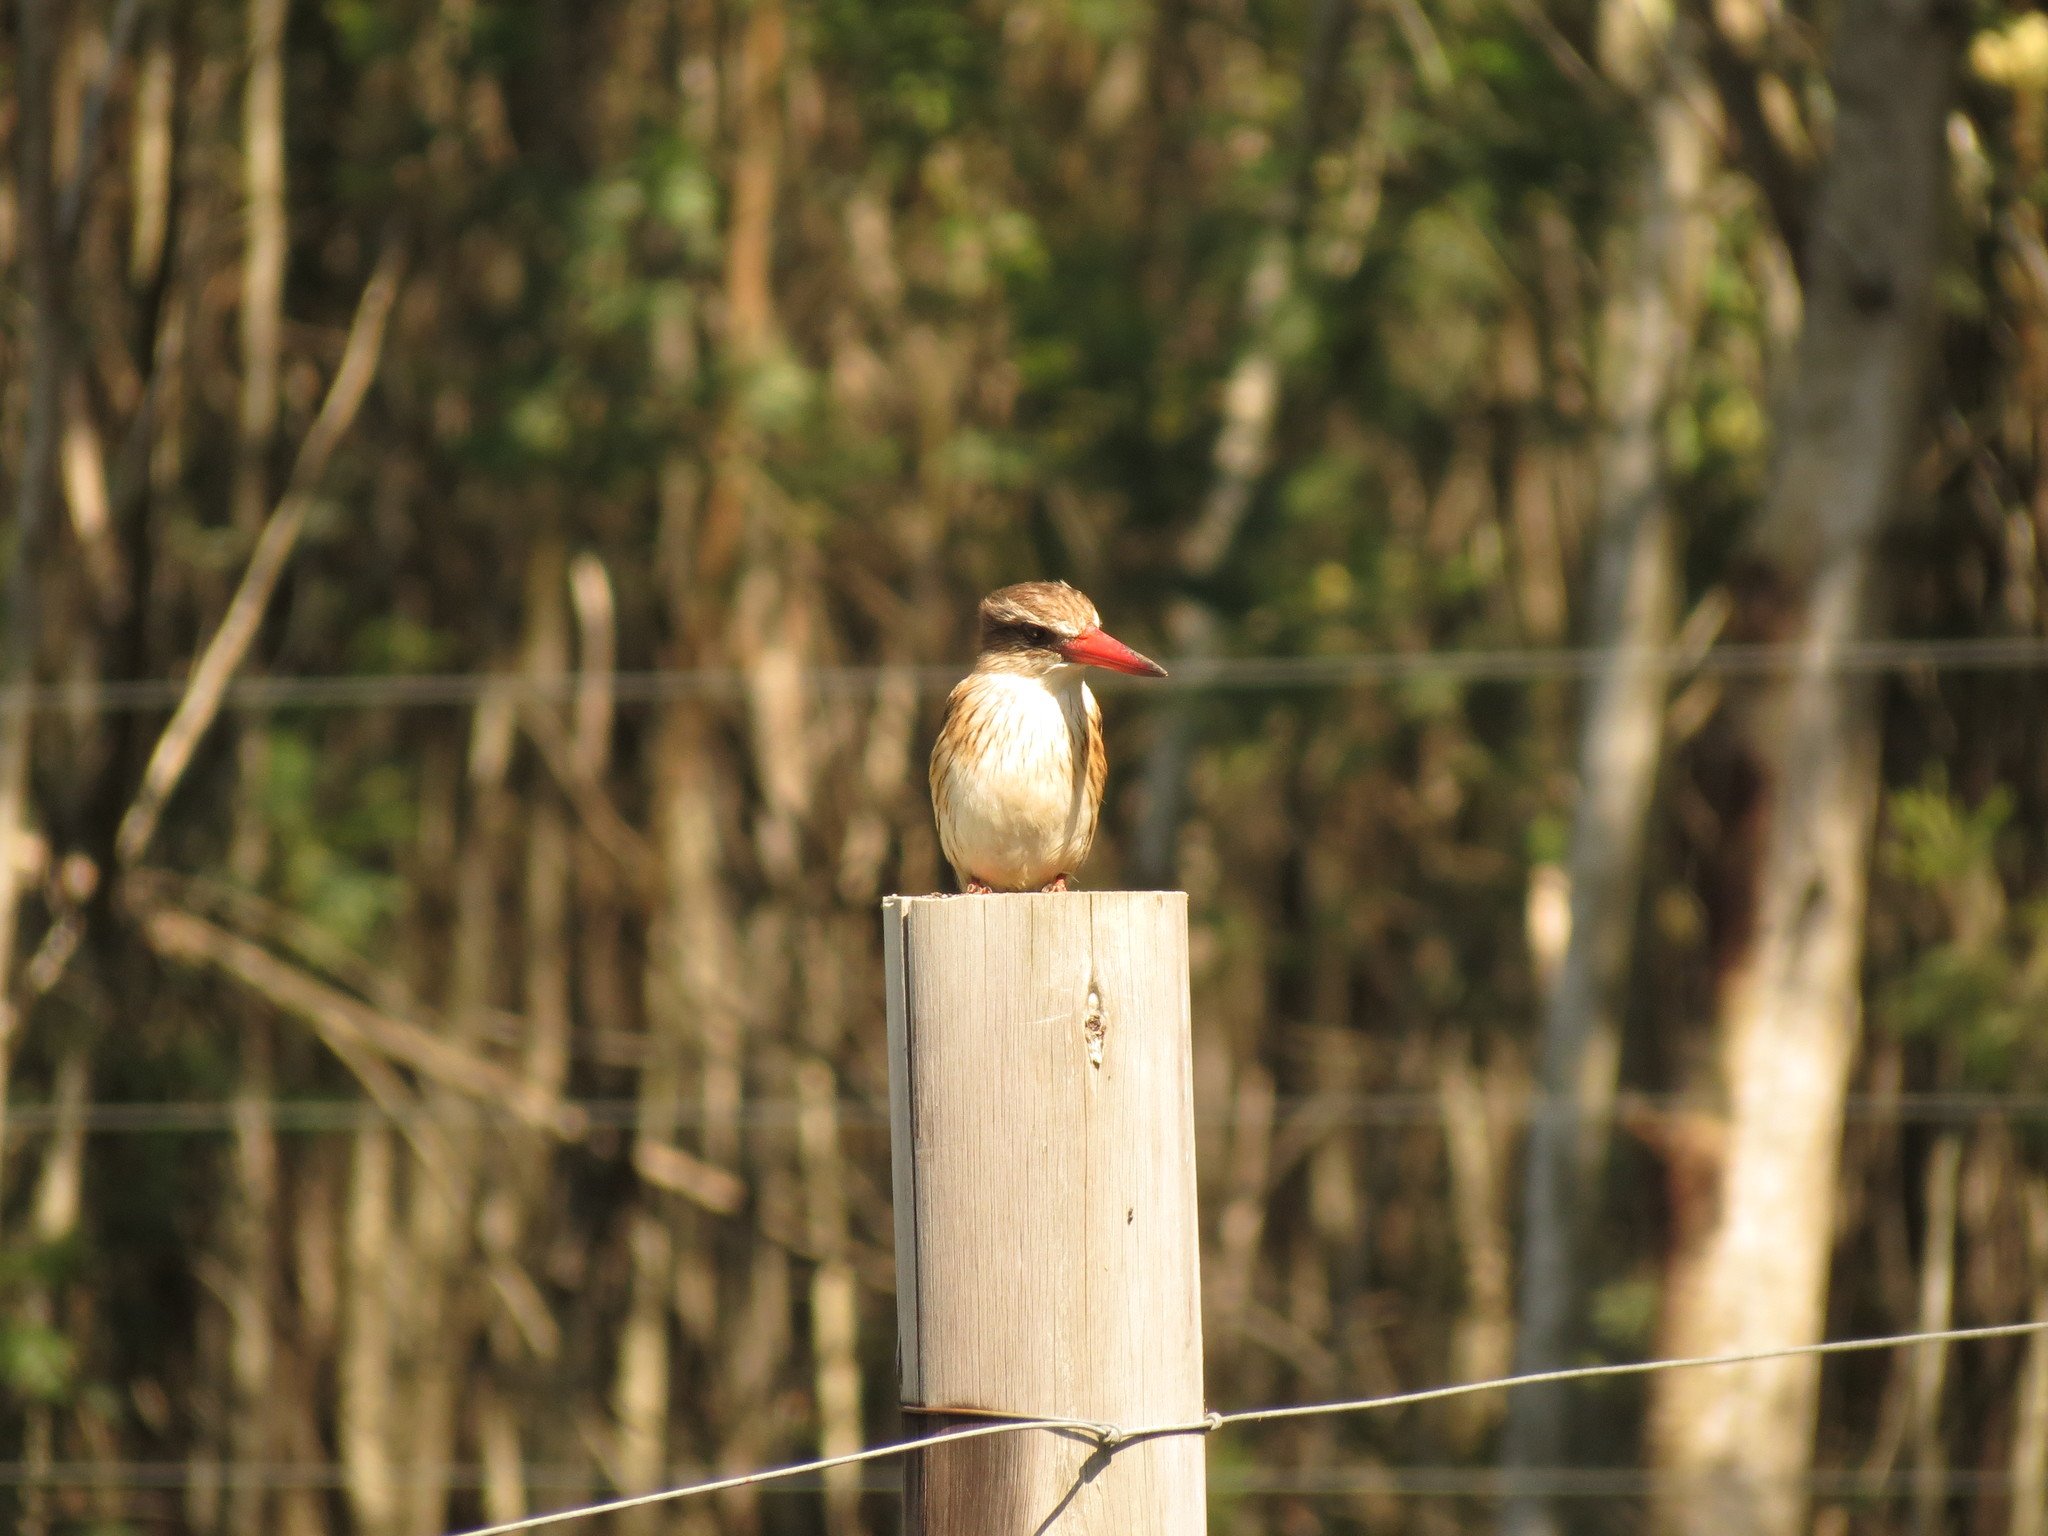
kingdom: Animalia
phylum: Chordata
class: Aves
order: Coraciiformes
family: Alcedinidae
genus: Halcyon
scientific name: Halcyon albiventris
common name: Brown-hooded kingfisher
